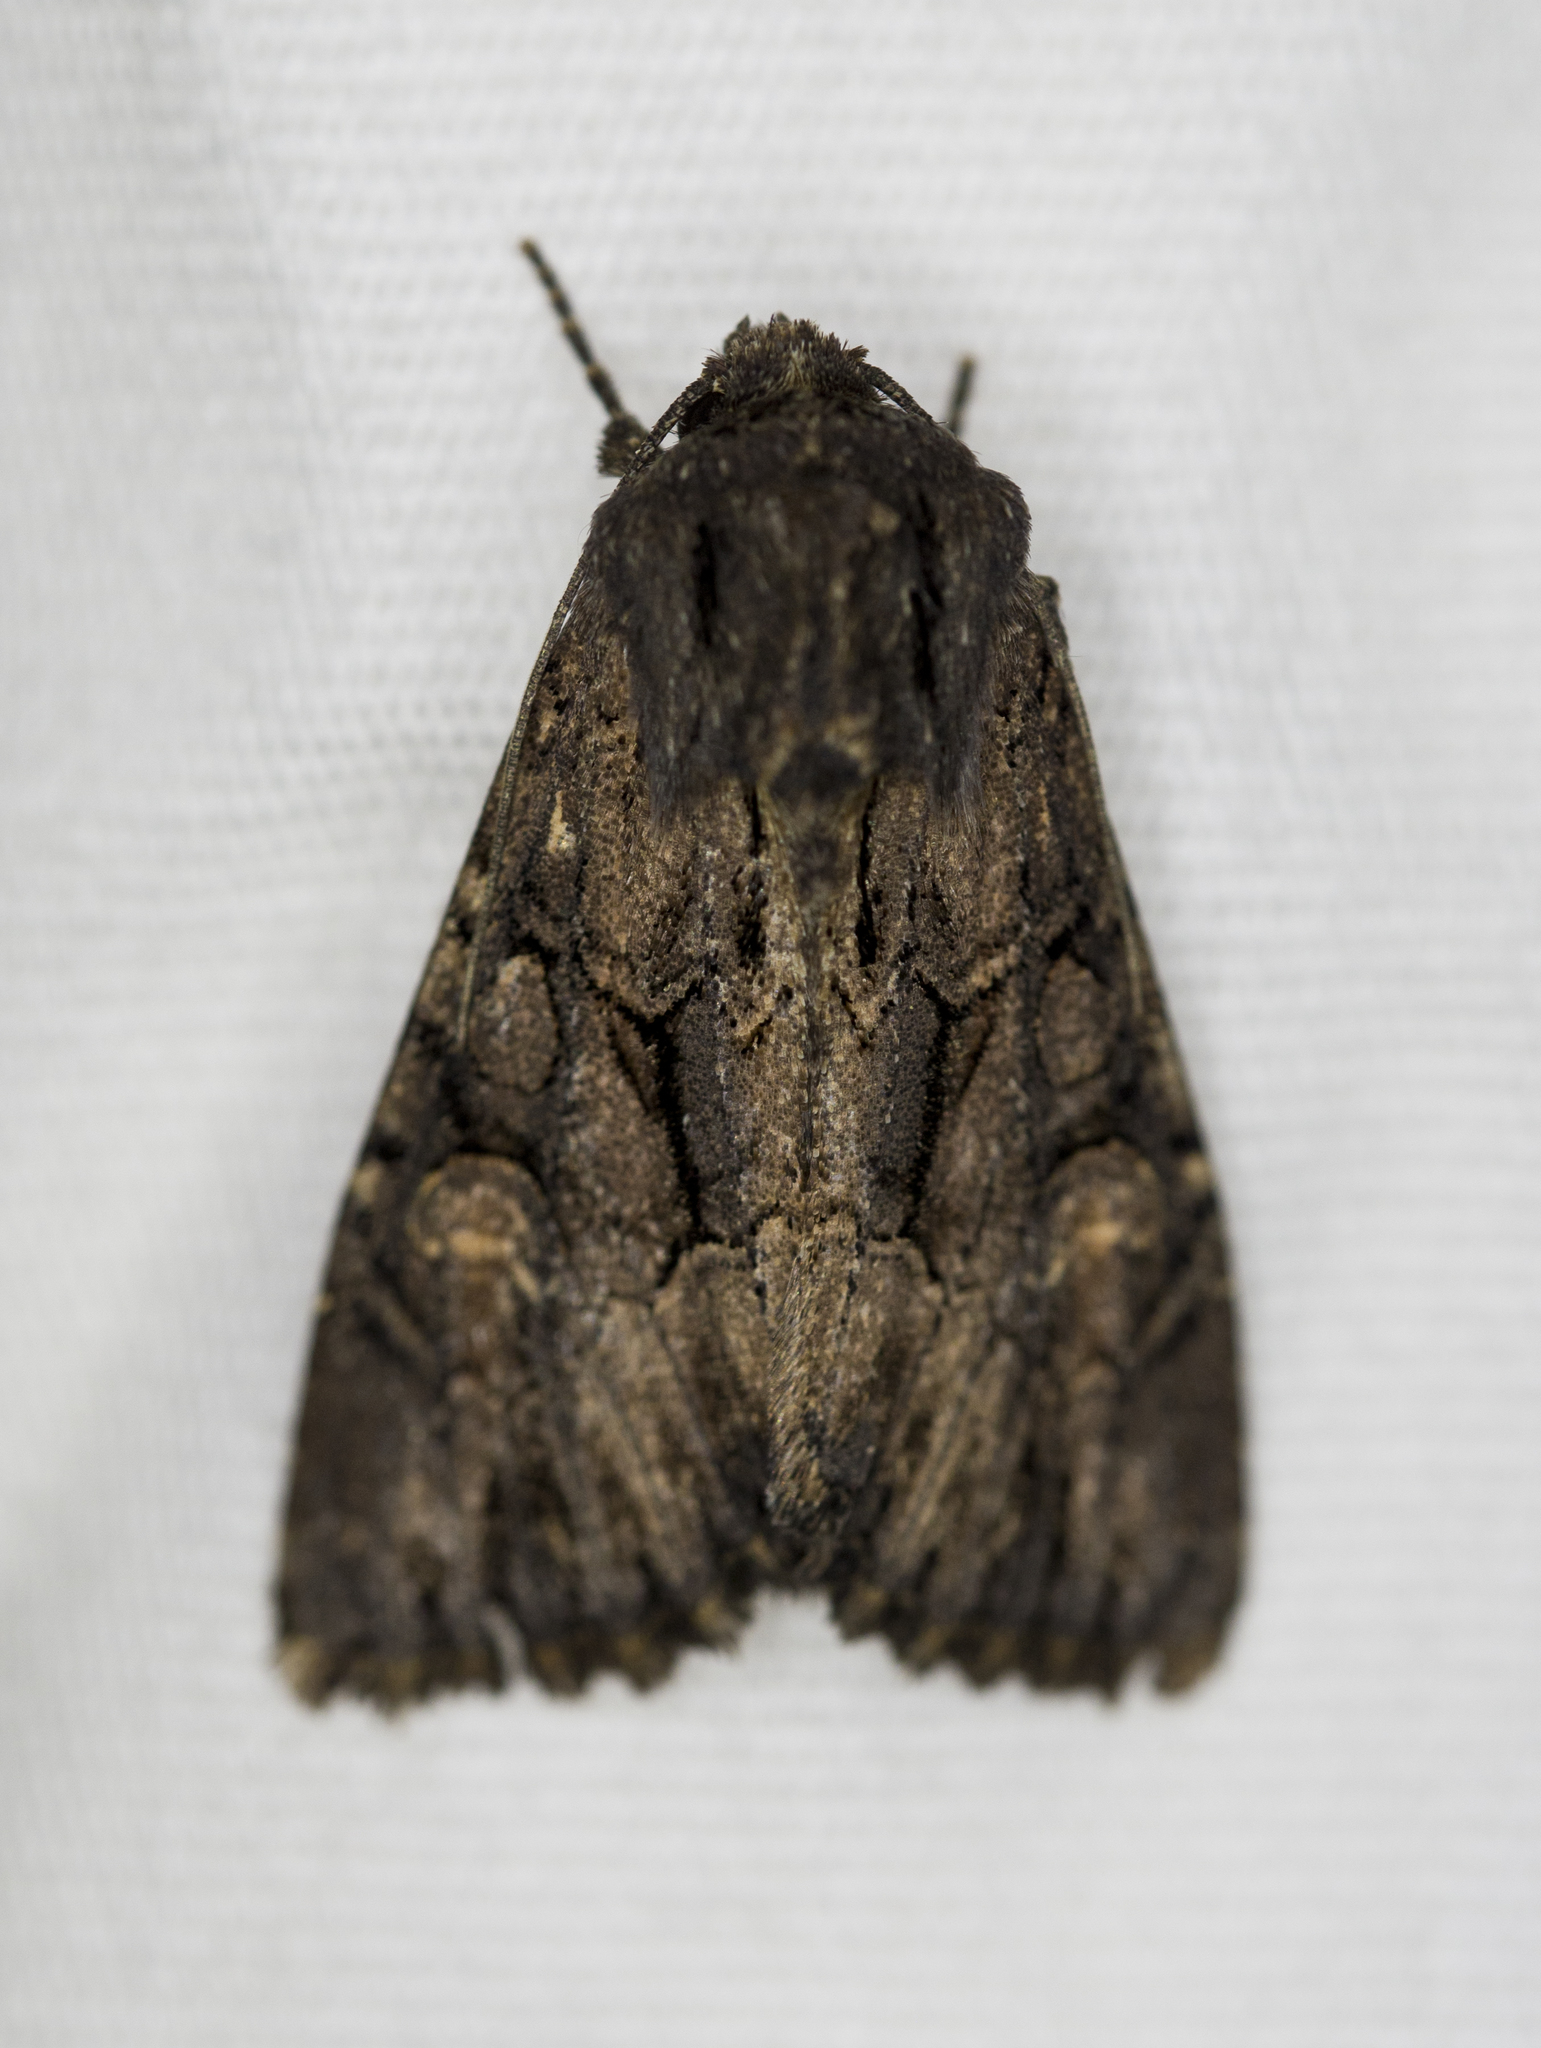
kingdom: Animalia
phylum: Arthropoda
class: Insecta
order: Lepidoptera
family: Noctuidae
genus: Apamea
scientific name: Apamea burgessi
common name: Burgess' apamea moth
